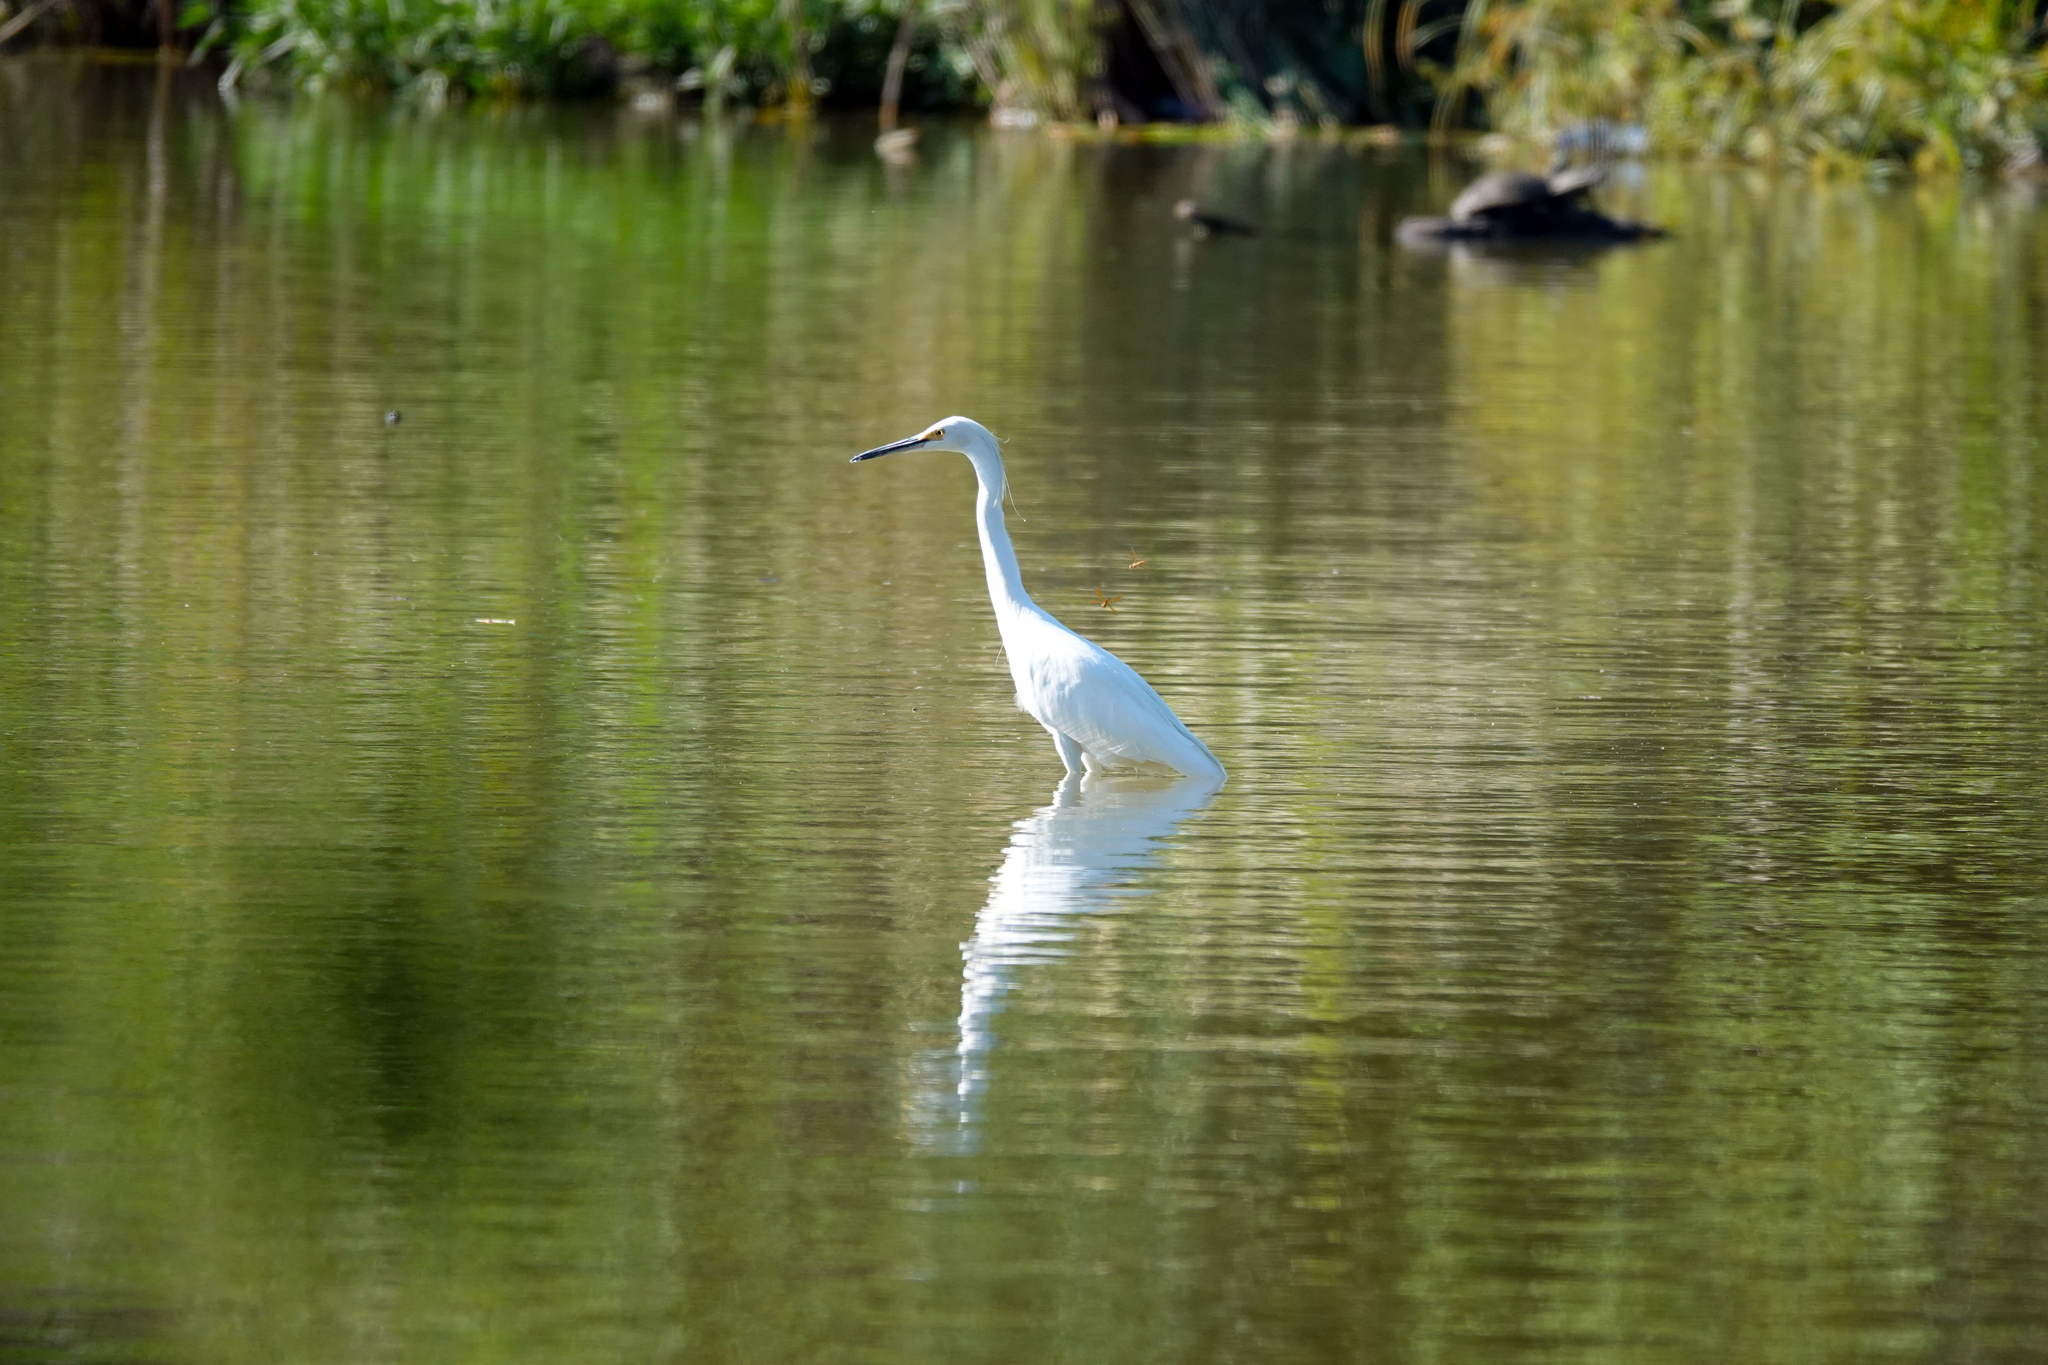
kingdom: Animalia
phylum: Chordata
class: Aves
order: Pelecaniformes
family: Ardeidae
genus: Egretta
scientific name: Egretta thula
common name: Snowy egret
